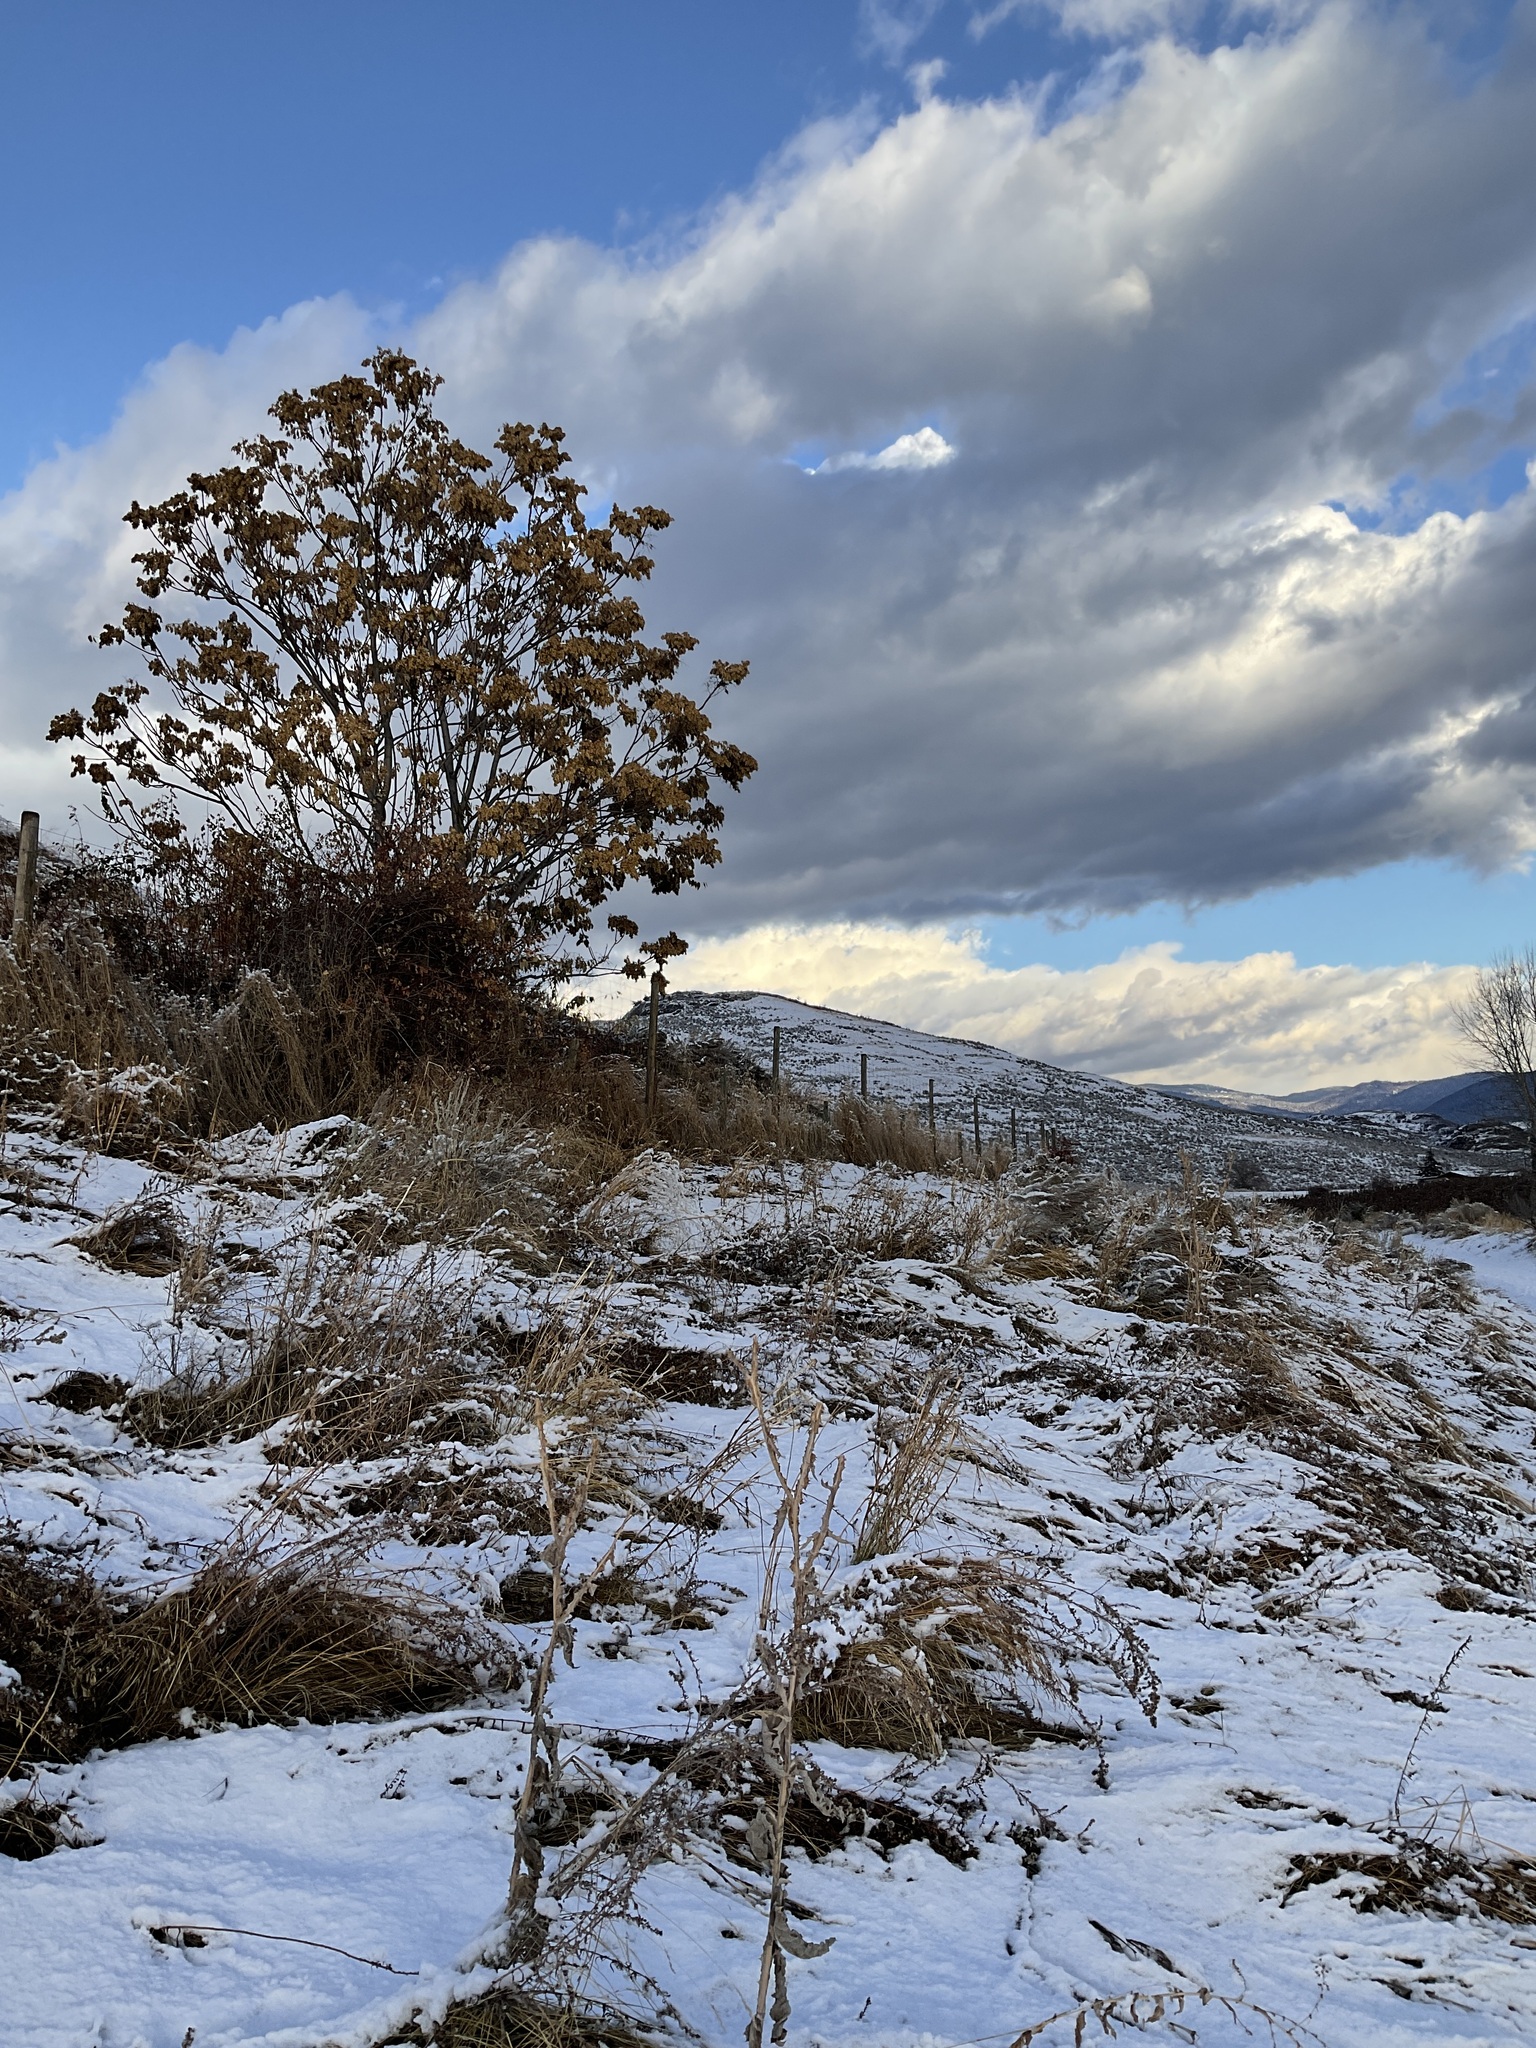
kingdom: Plantae
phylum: Tracheophyta
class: Magnoliopsida
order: Sapindales
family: Simaroubaceae
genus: Ailanthus
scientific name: Ailanthus altissima
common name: Tree-of-heaven
